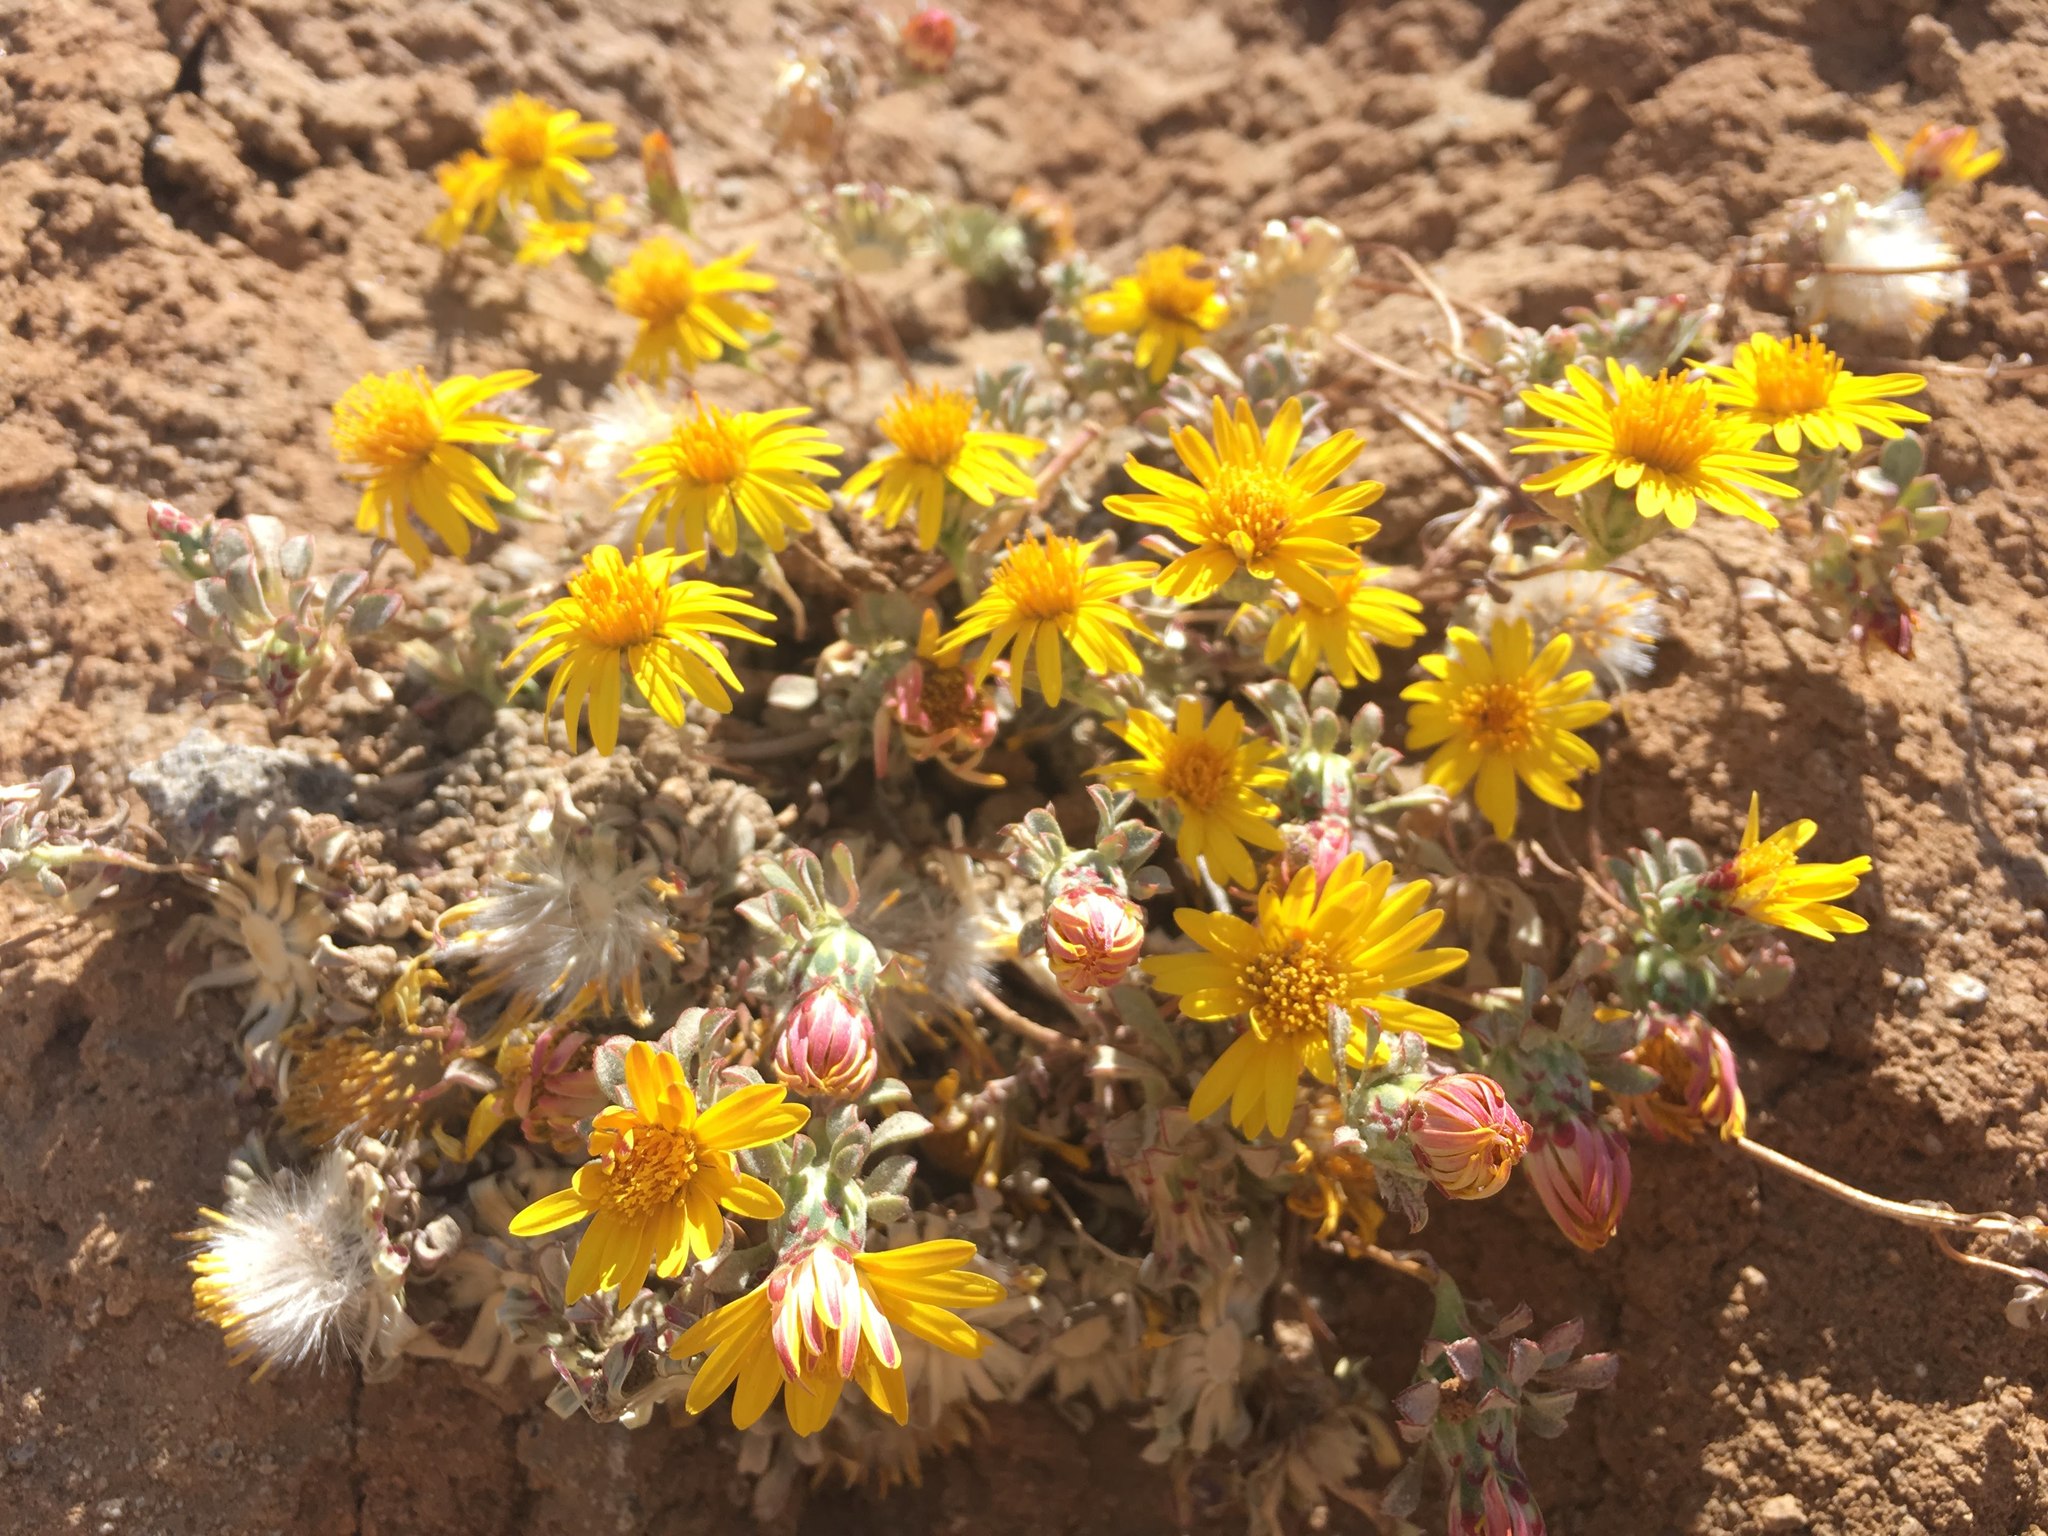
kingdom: Plantae
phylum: Tracheophyta
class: Magnoliopsida
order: Asterales
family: Asteraceae
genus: Chaetanthera
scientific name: Chaetanthera pubescens
